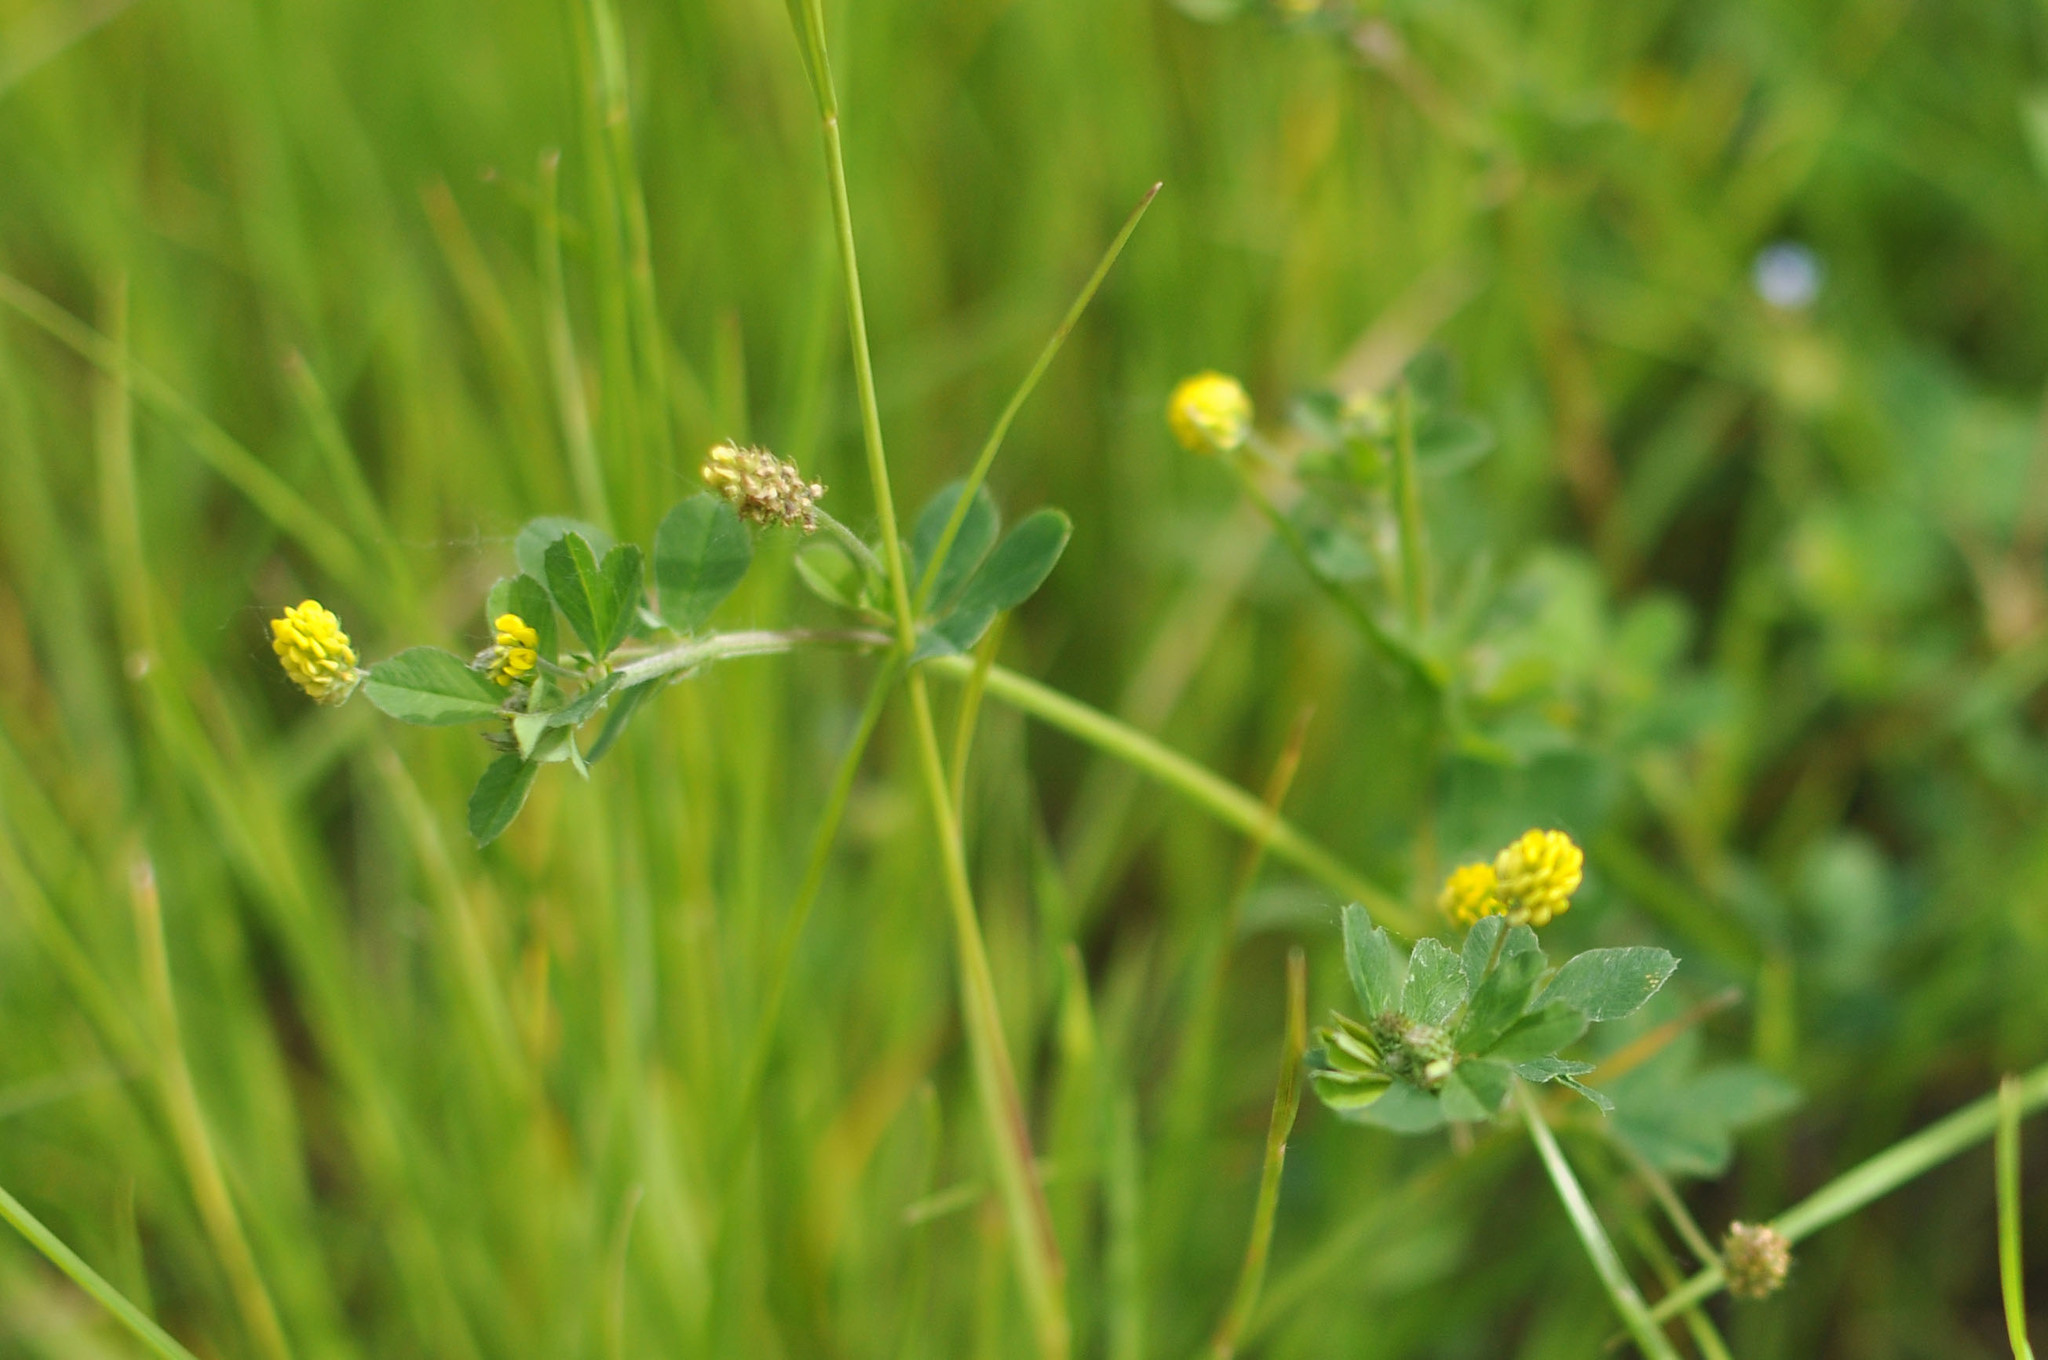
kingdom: Plantae
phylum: Tracheophyta
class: Magnoliopsida
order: Fabales
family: Fabaceae
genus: Medicago
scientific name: Medicago lupulina
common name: Black medick
